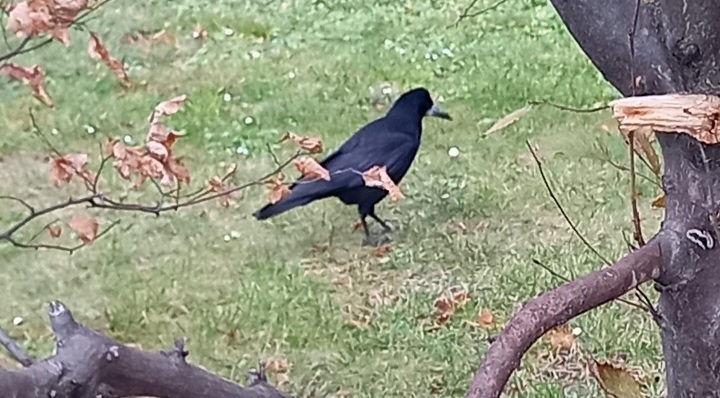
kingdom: Animalia
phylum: Chordata
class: Aves
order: Passeriformes
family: Corvidae
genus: Corvus
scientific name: Corvus frugilegus
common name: Rook
